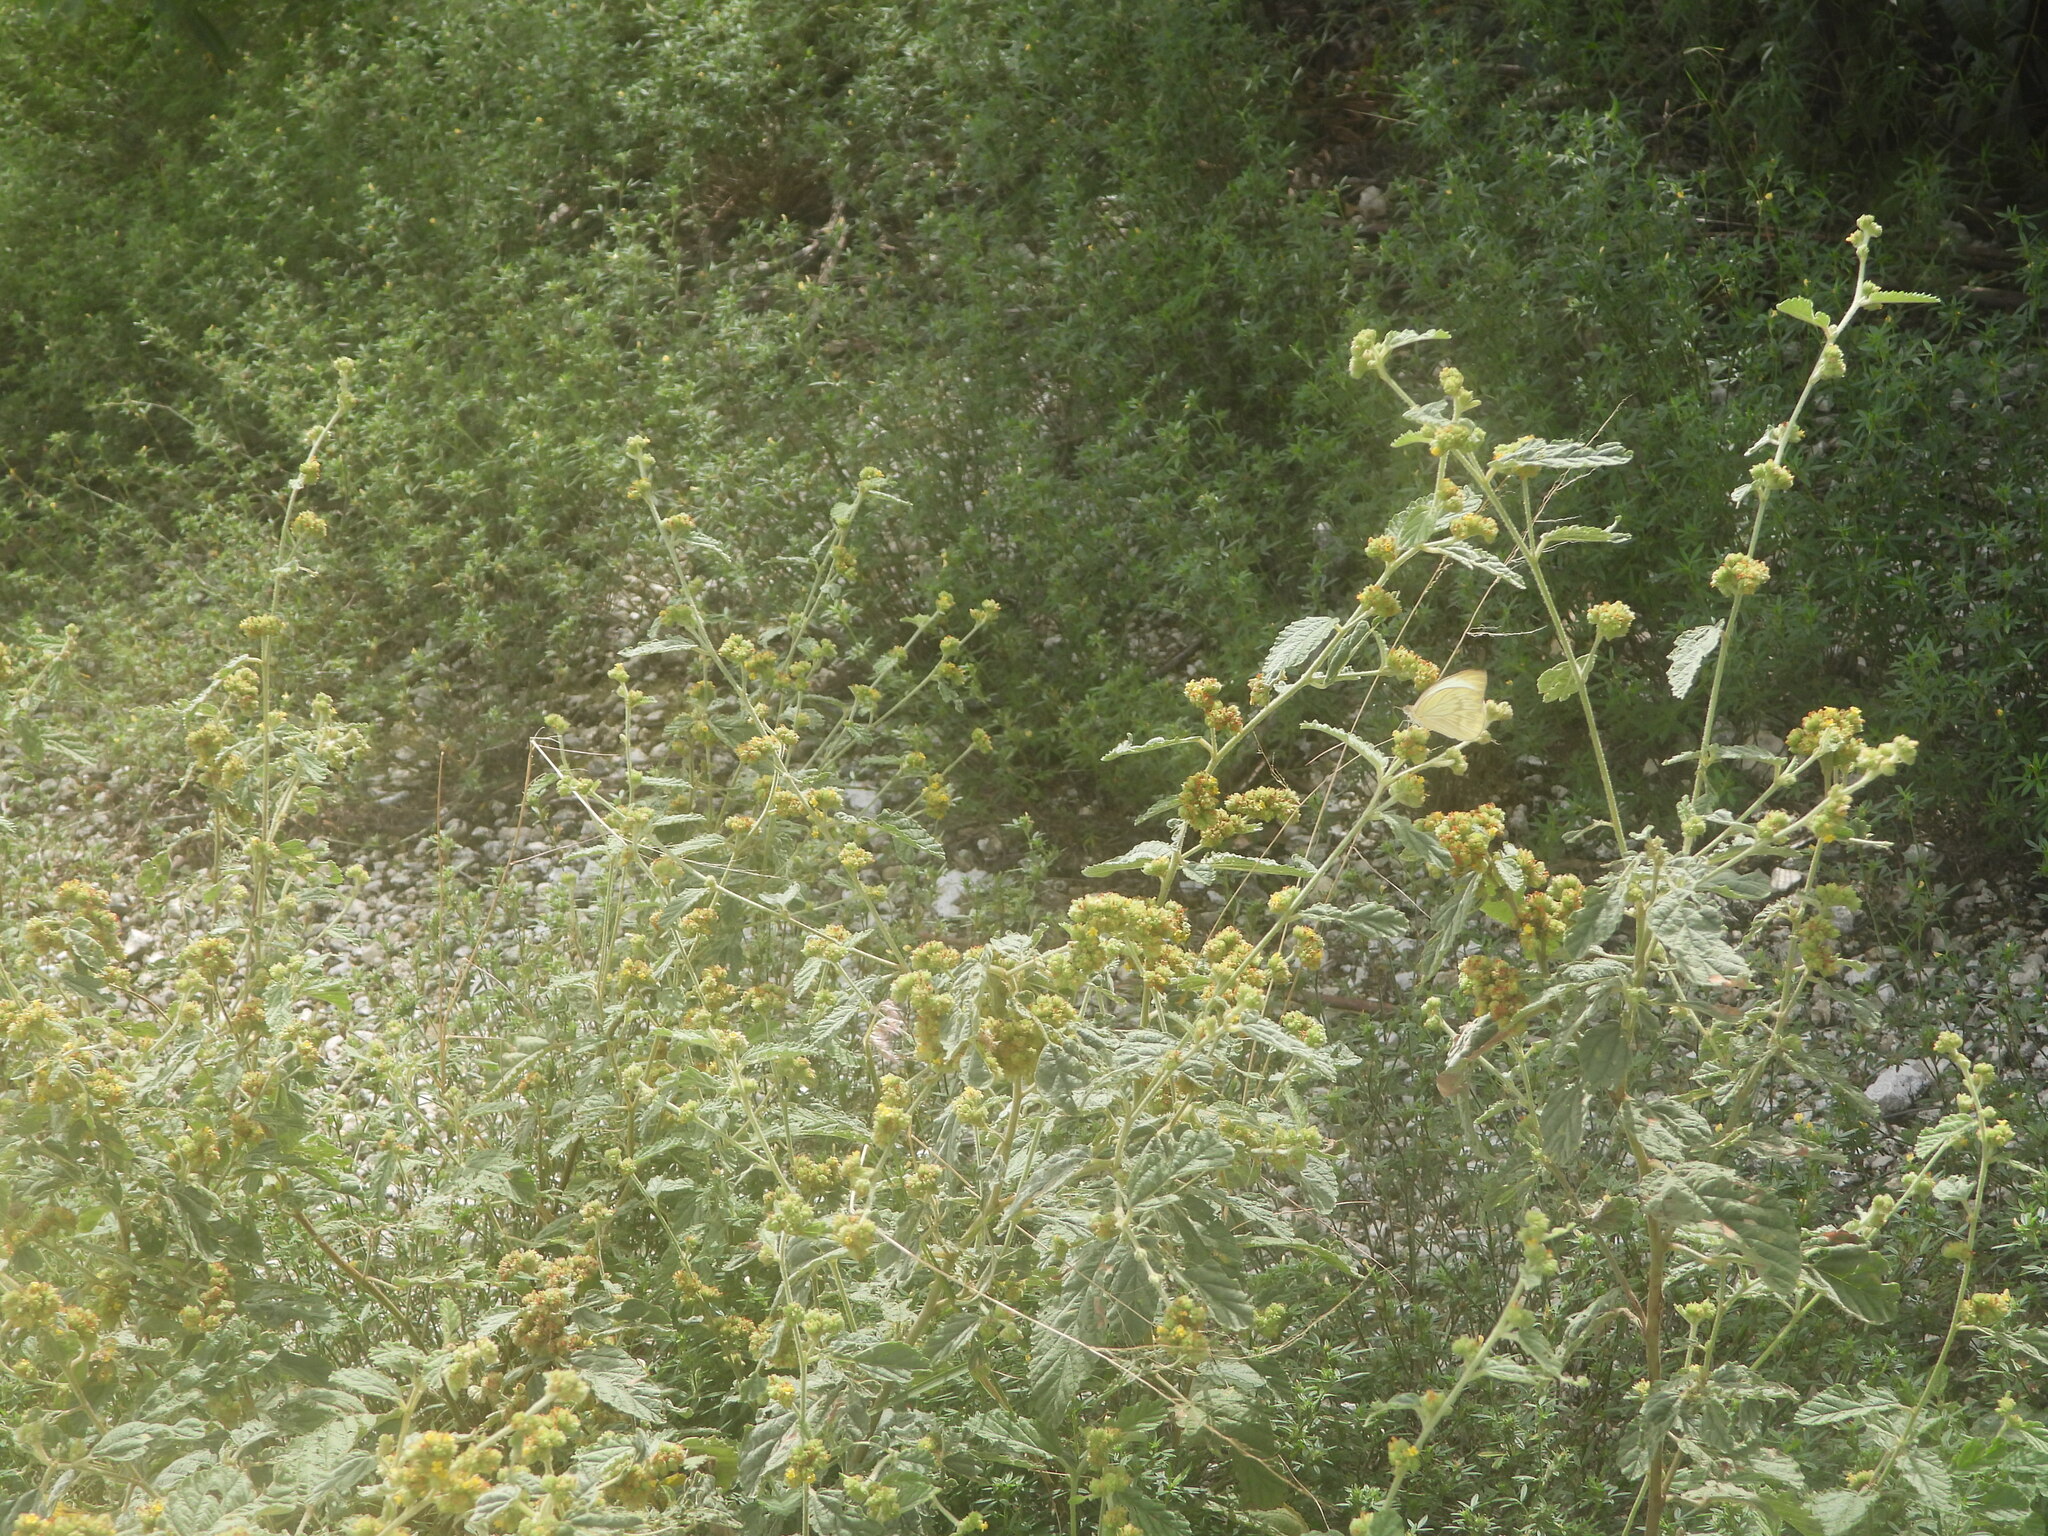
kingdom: Animalia
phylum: Arthropoda
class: Insecta
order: Lepidoptera
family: Pieridae
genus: Ascia
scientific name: Ascia monuste
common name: Great southern white
